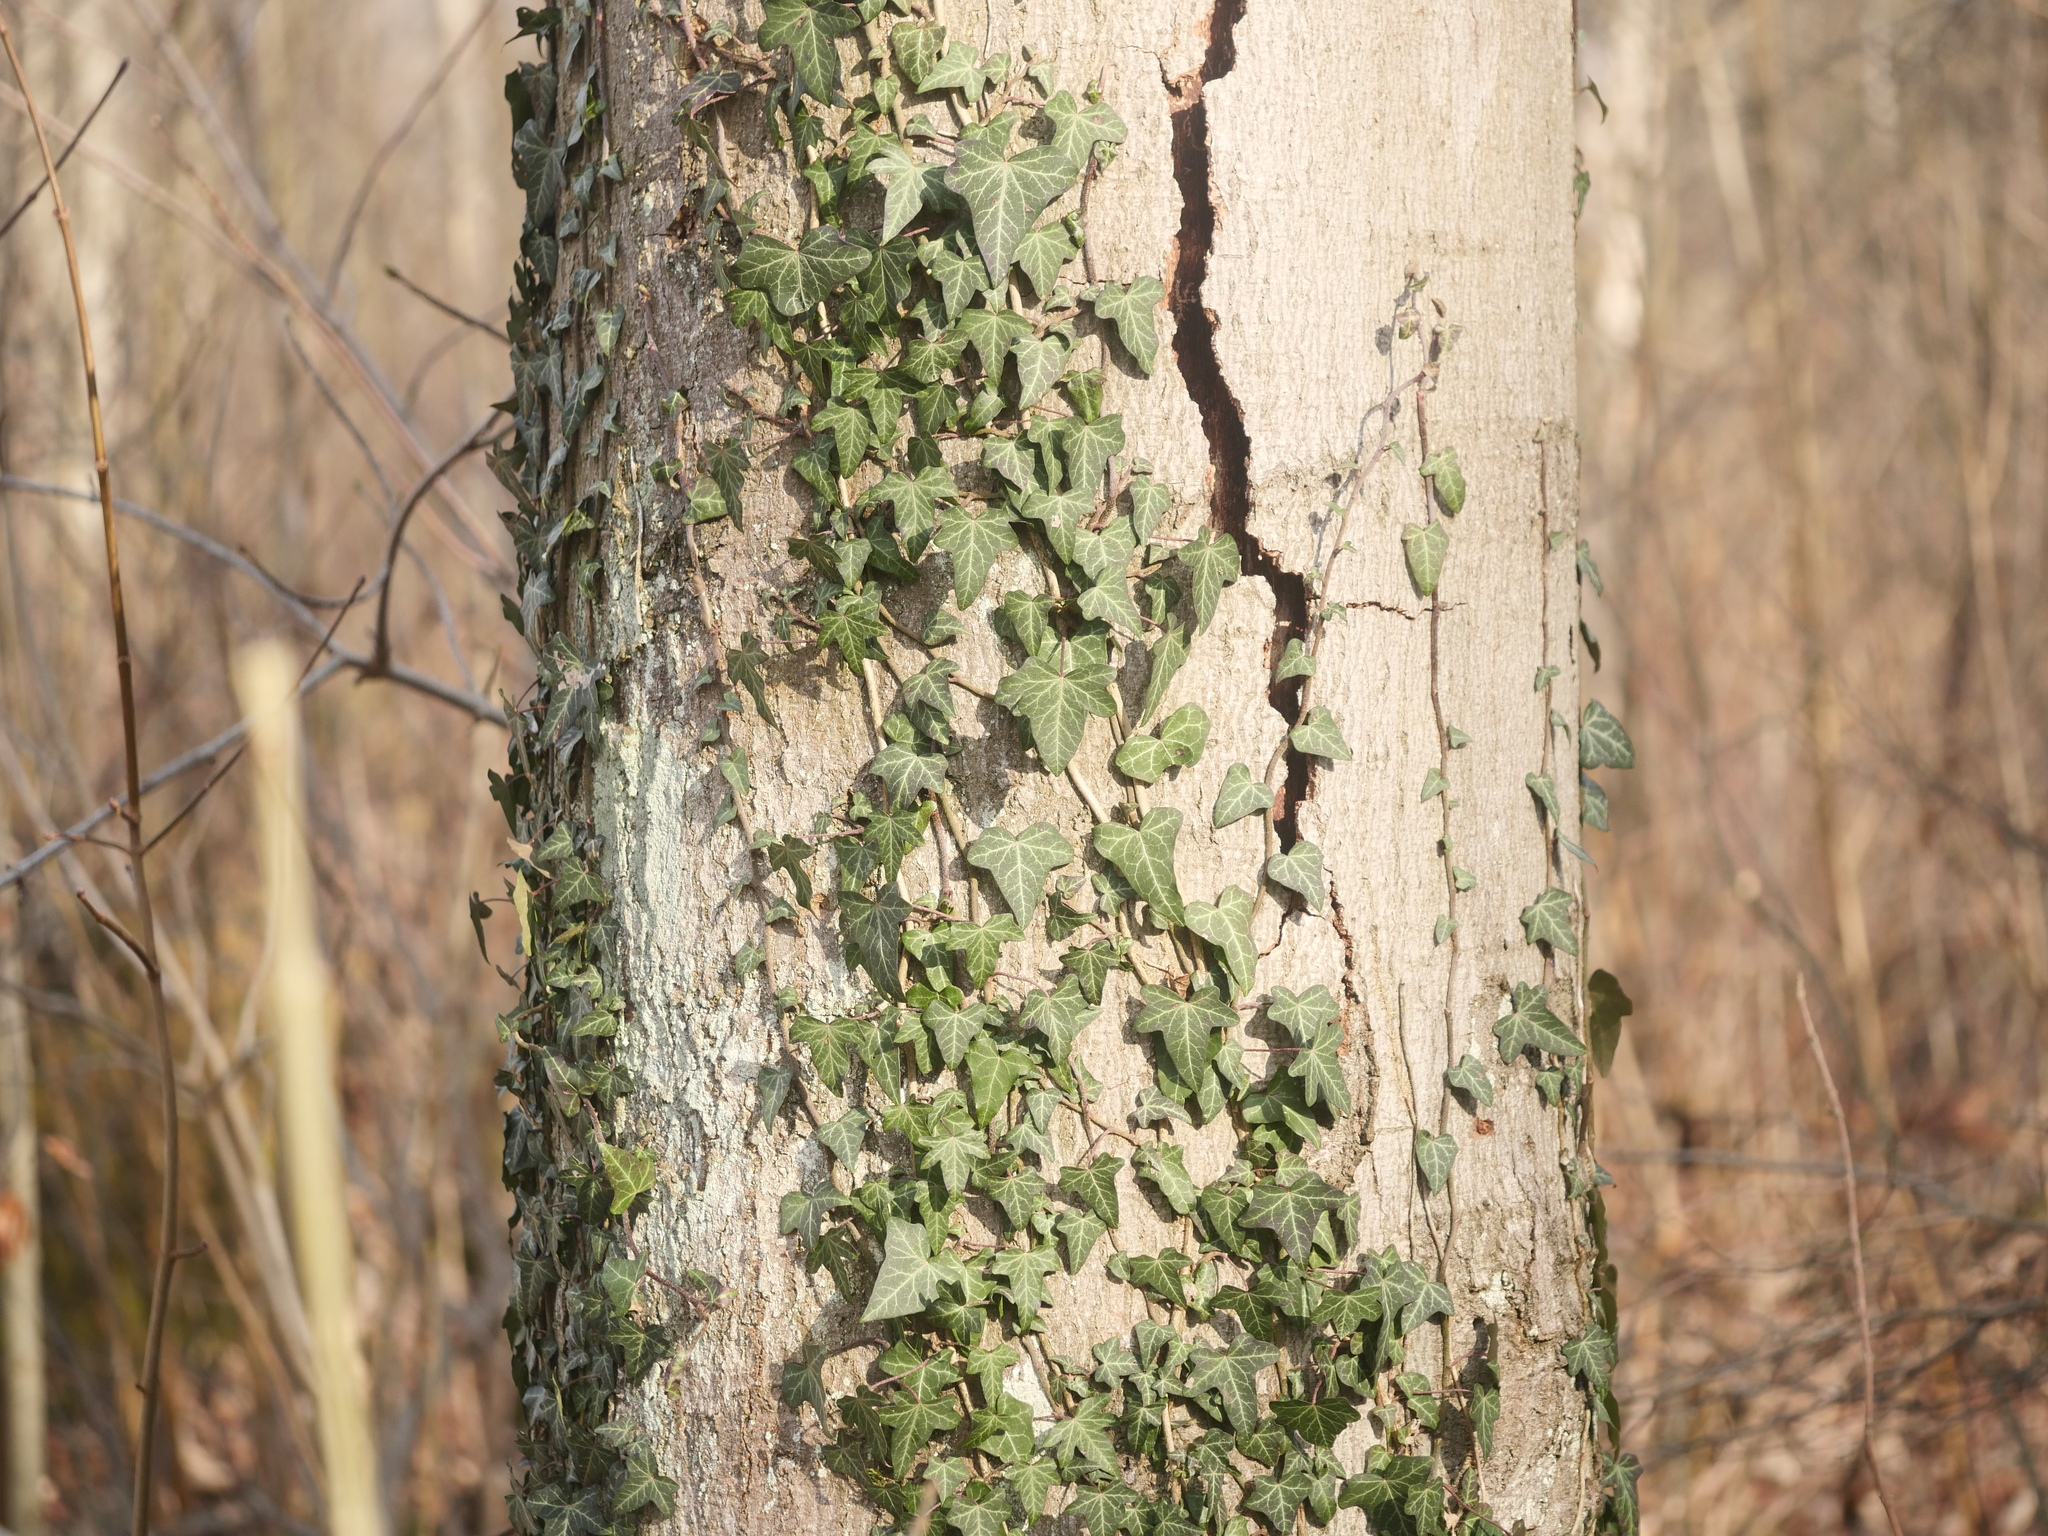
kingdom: Plantae
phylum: Tracheophyta
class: Magnoliopsida
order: Apiales
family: Araliaceae
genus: Hedera
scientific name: Hedera helix
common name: Ivy
